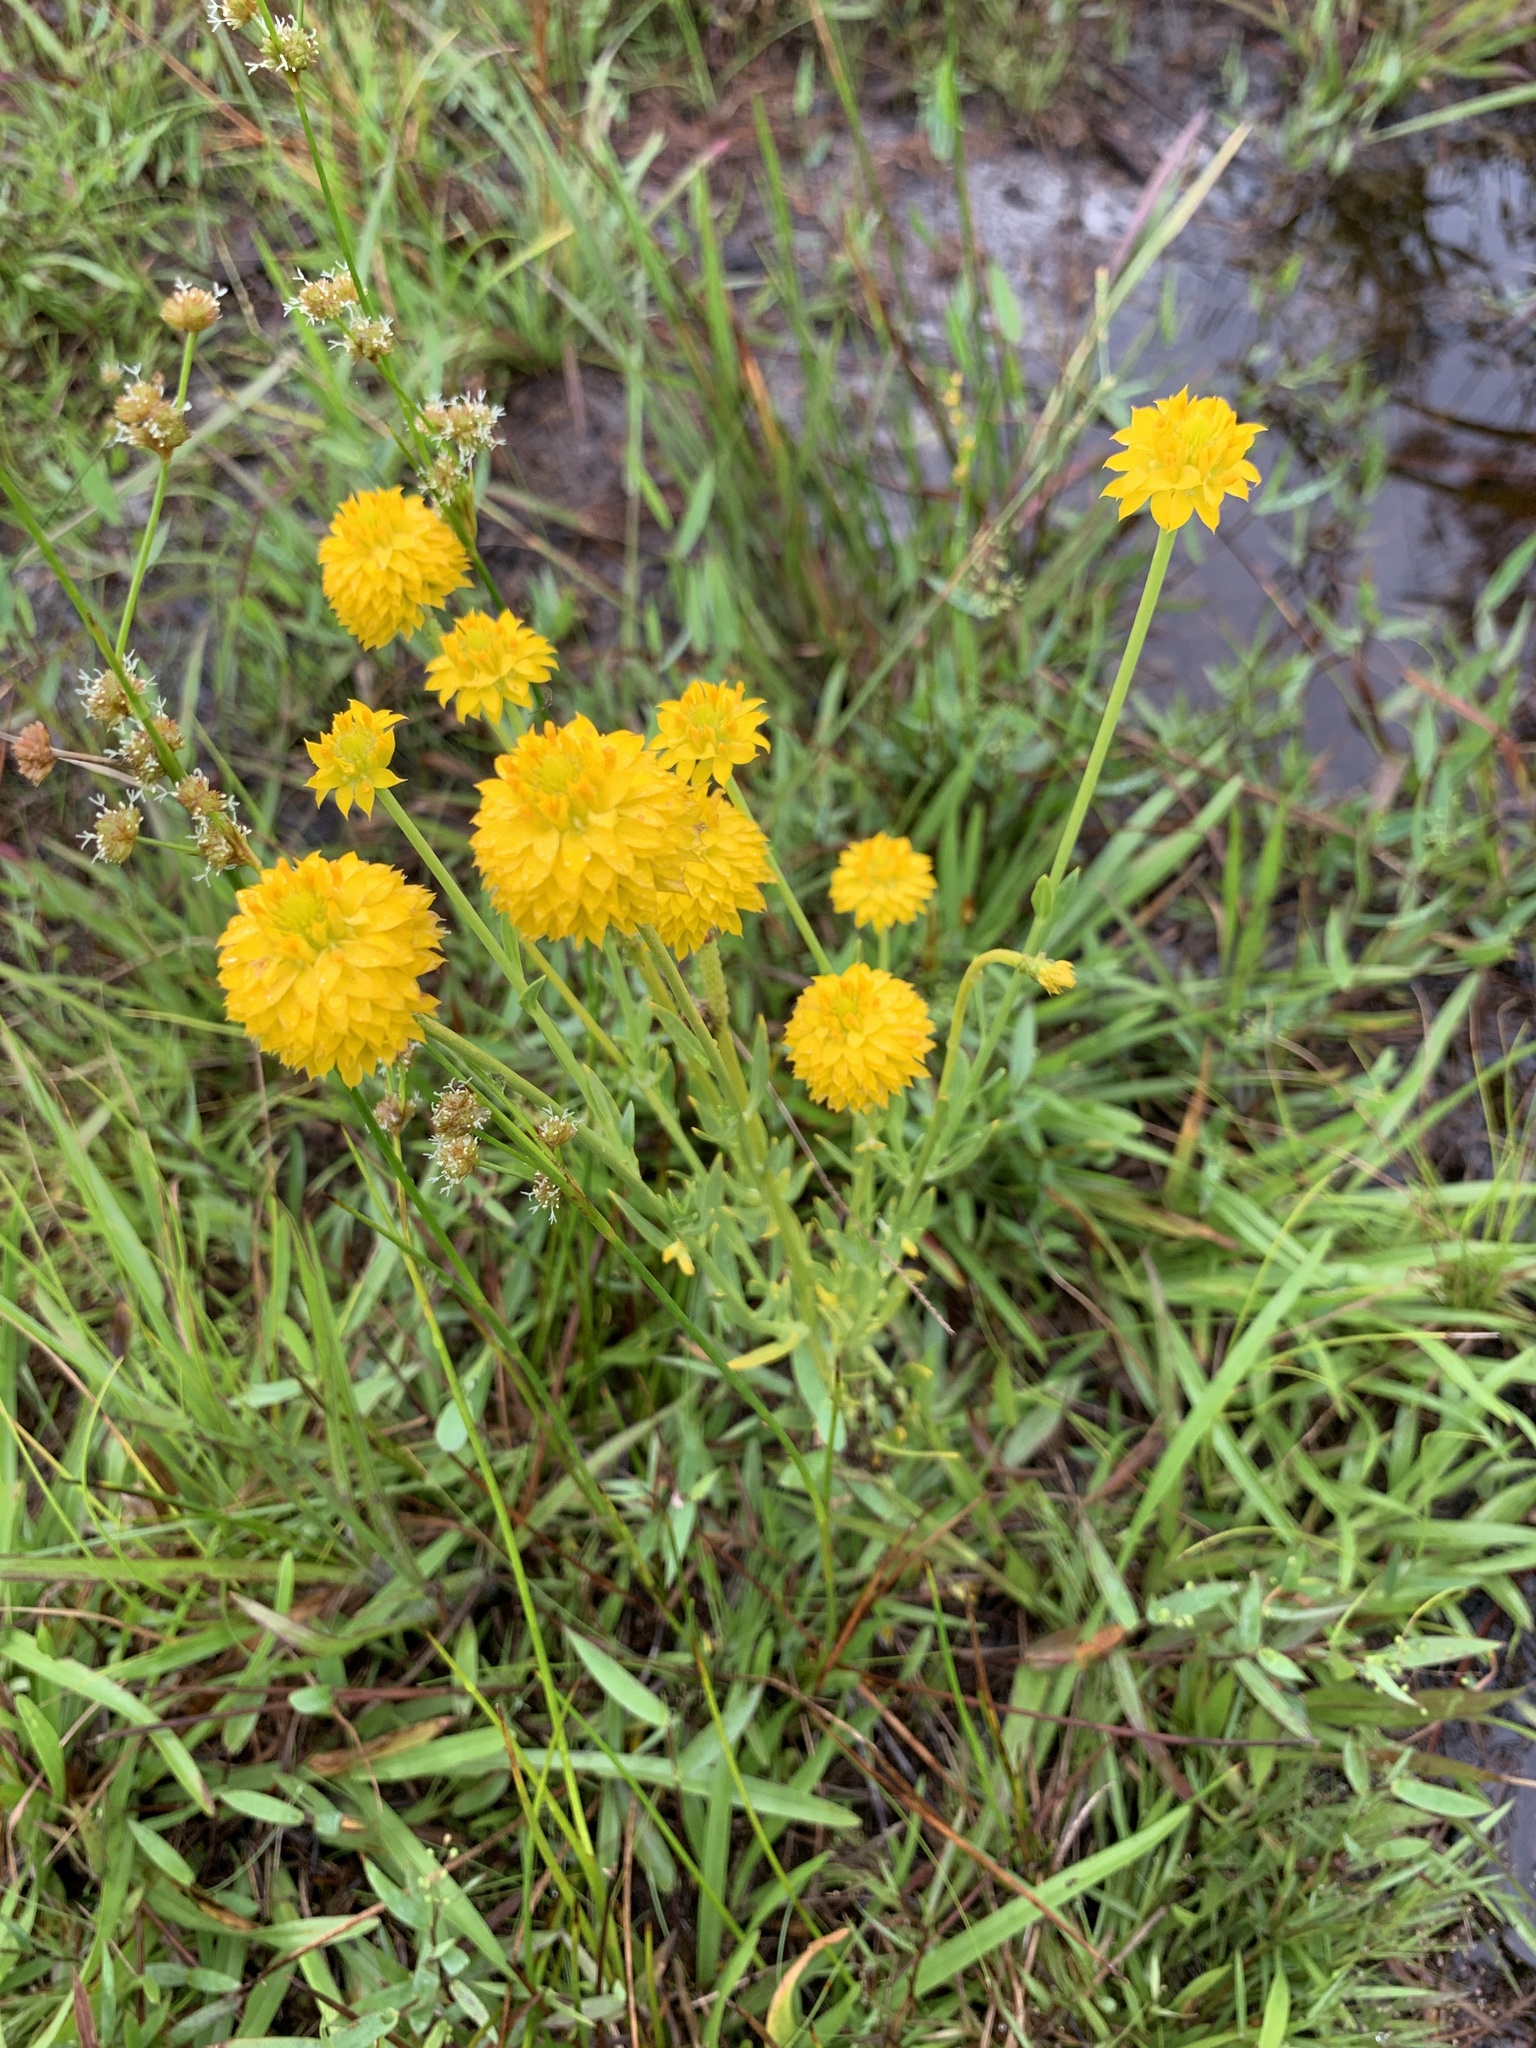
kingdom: Plantae
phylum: Tracheophyta
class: Magnoliopsida
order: Fabales
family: Polygalaceae
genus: Polygala
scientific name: Polygala rugelii
